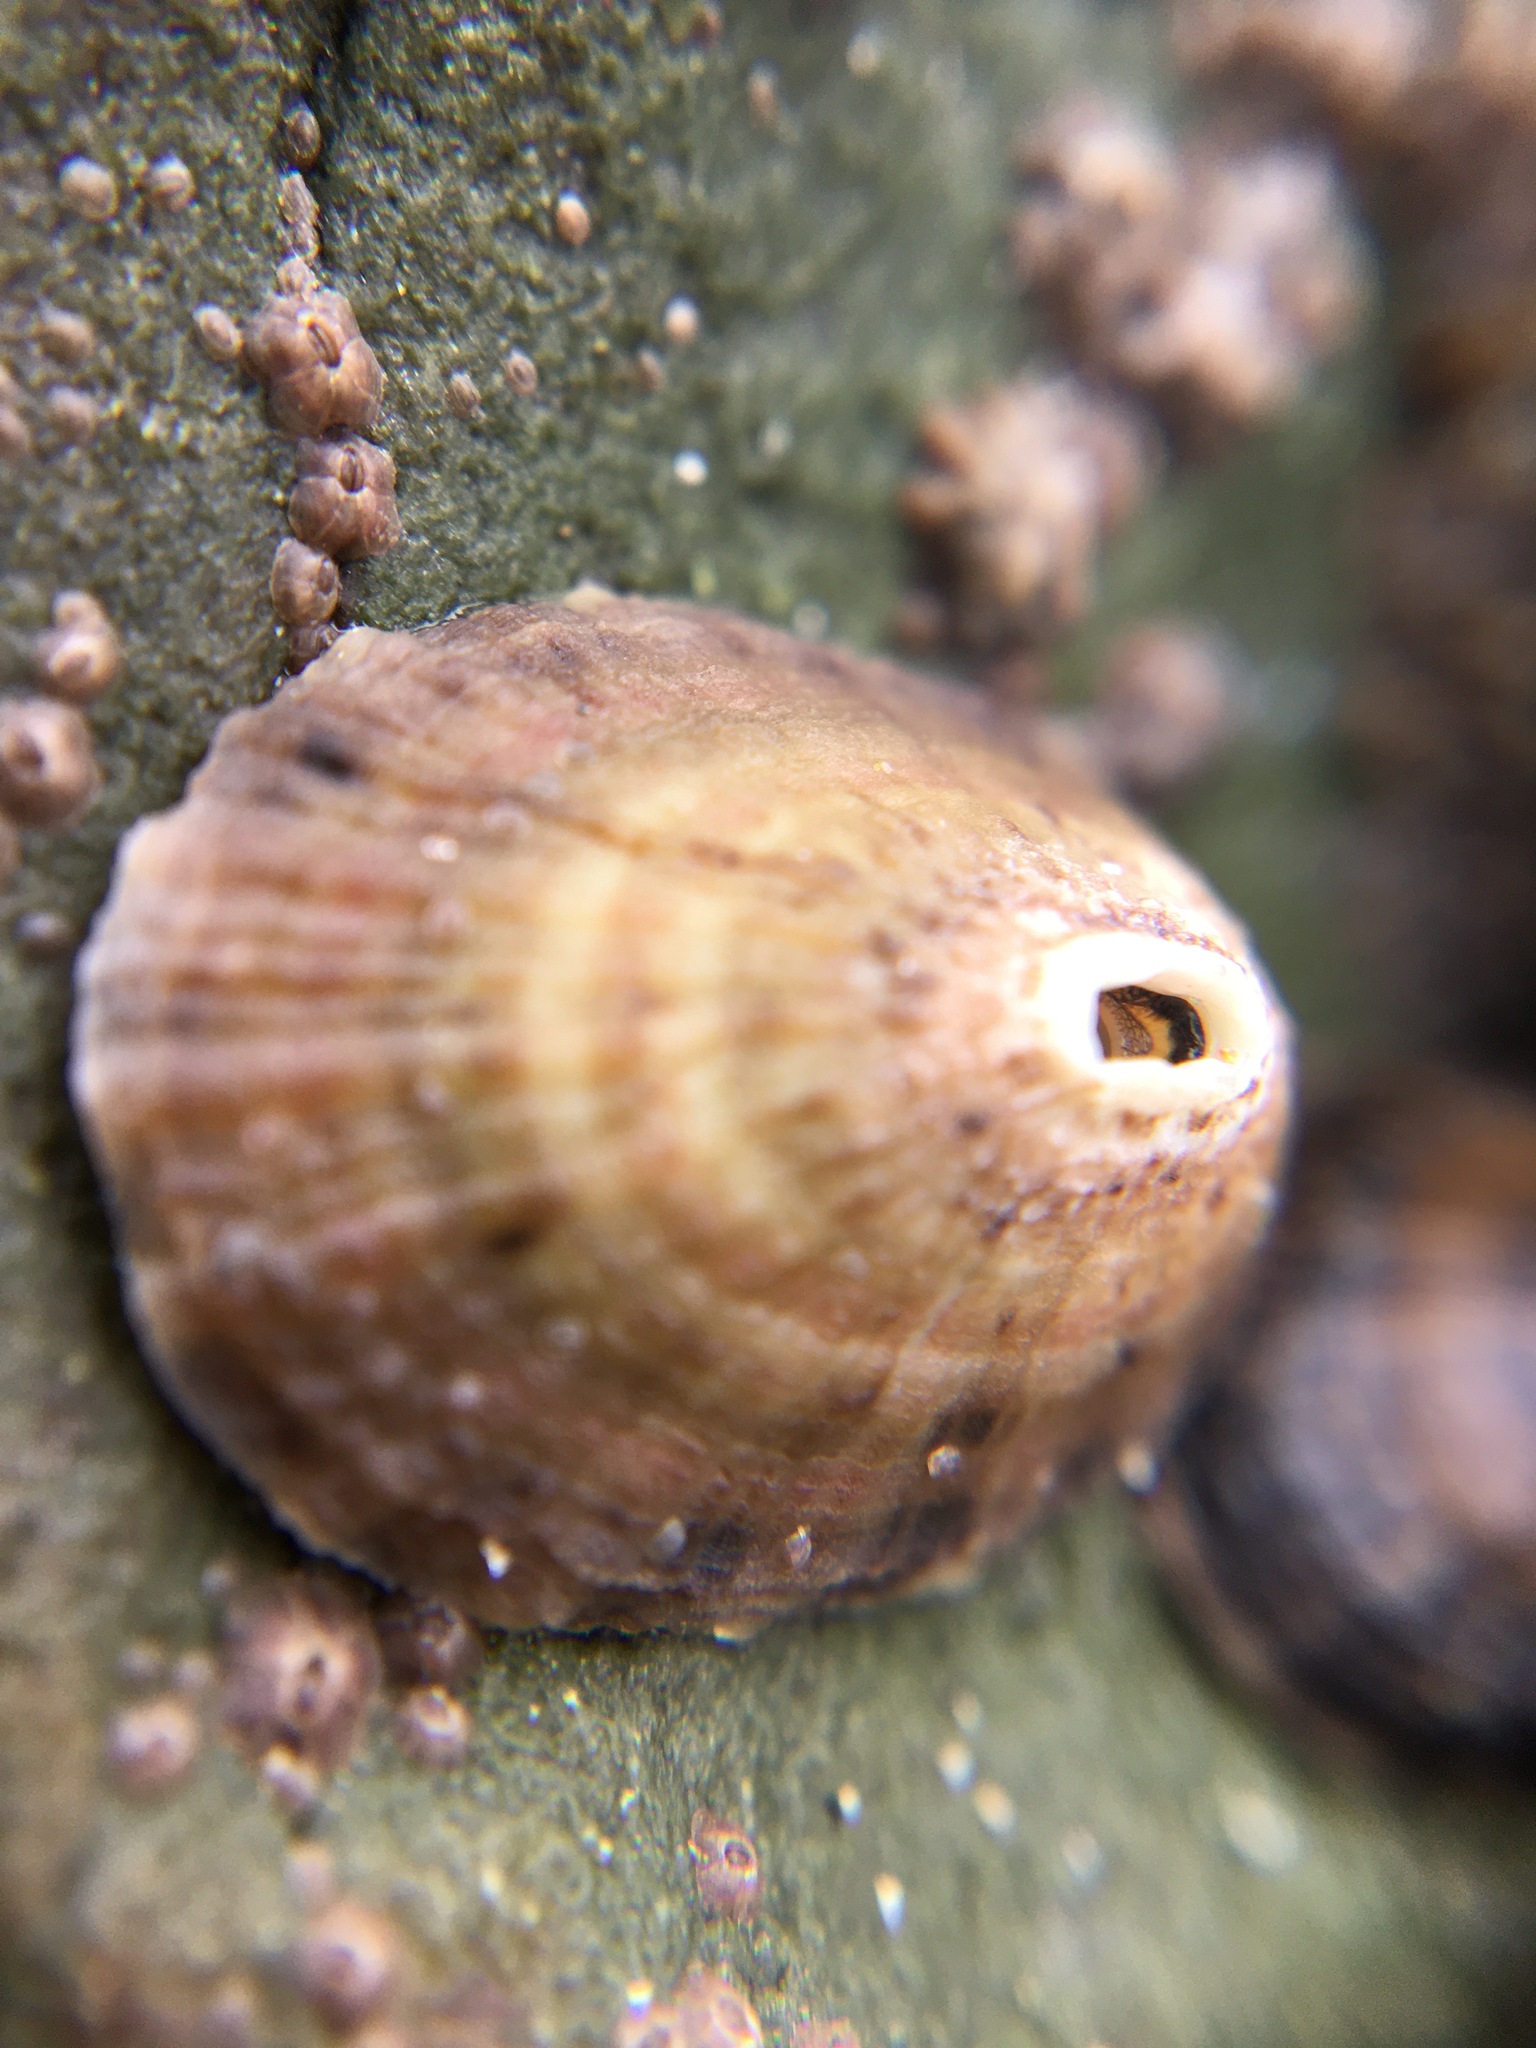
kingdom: Animalia
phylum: Mollusca
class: Gastropoda
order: Lepetellida
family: Fissurellidae
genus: Fissurella
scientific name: Fissurella volcano
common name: Volcano keyhole limpet
